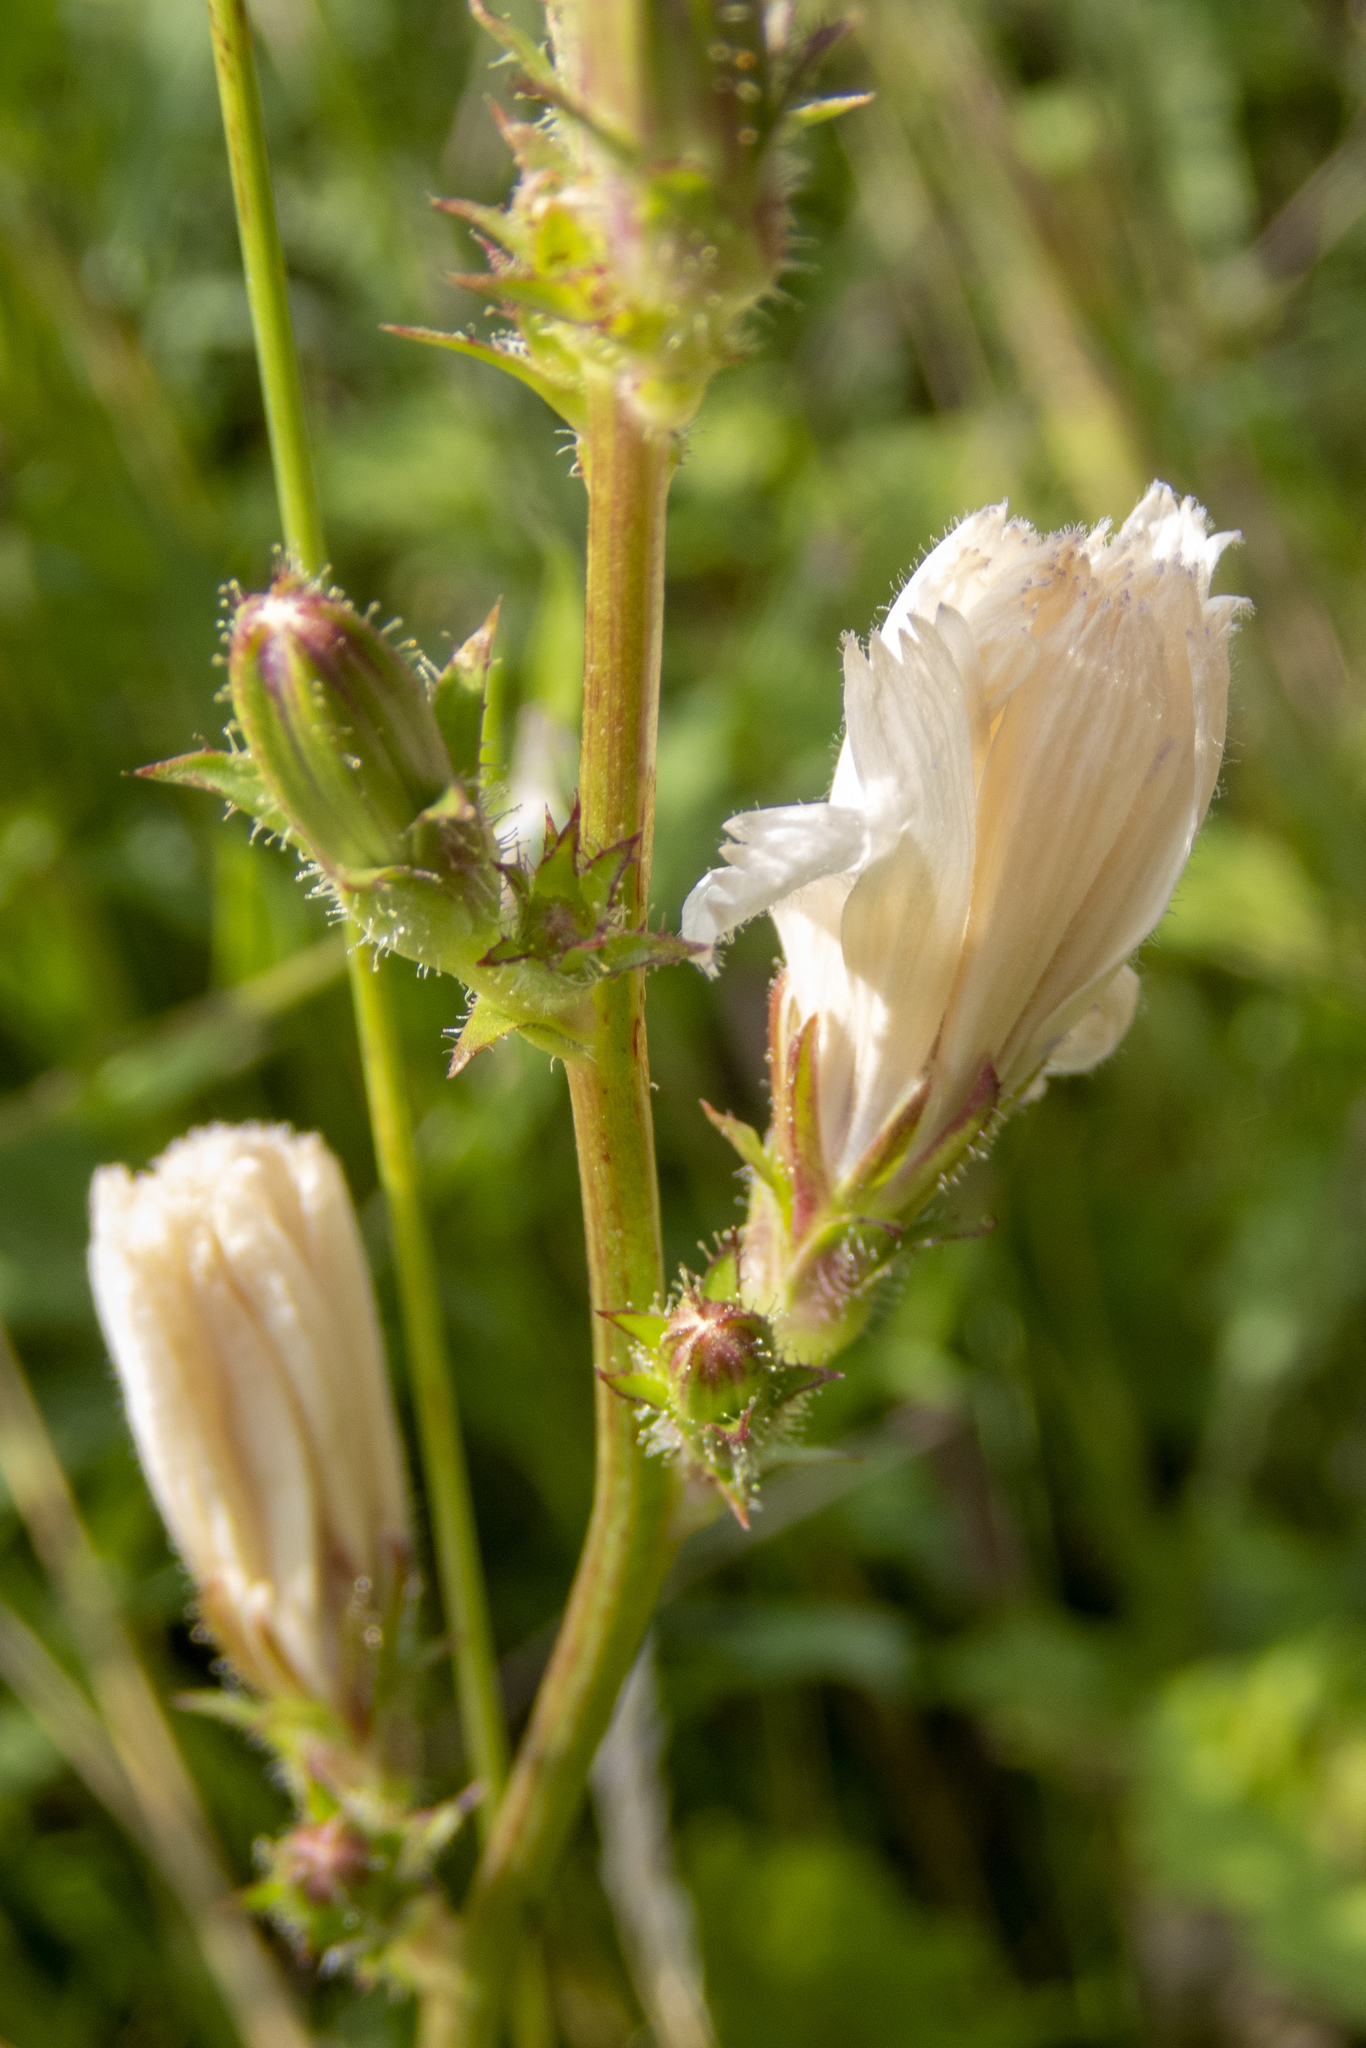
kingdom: Plantae
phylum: Tracheophyta
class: Magnoliopsida
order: Asterales
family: Asteraceae
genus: Cichorium
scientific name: Cichorium intybus
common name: Chicory
